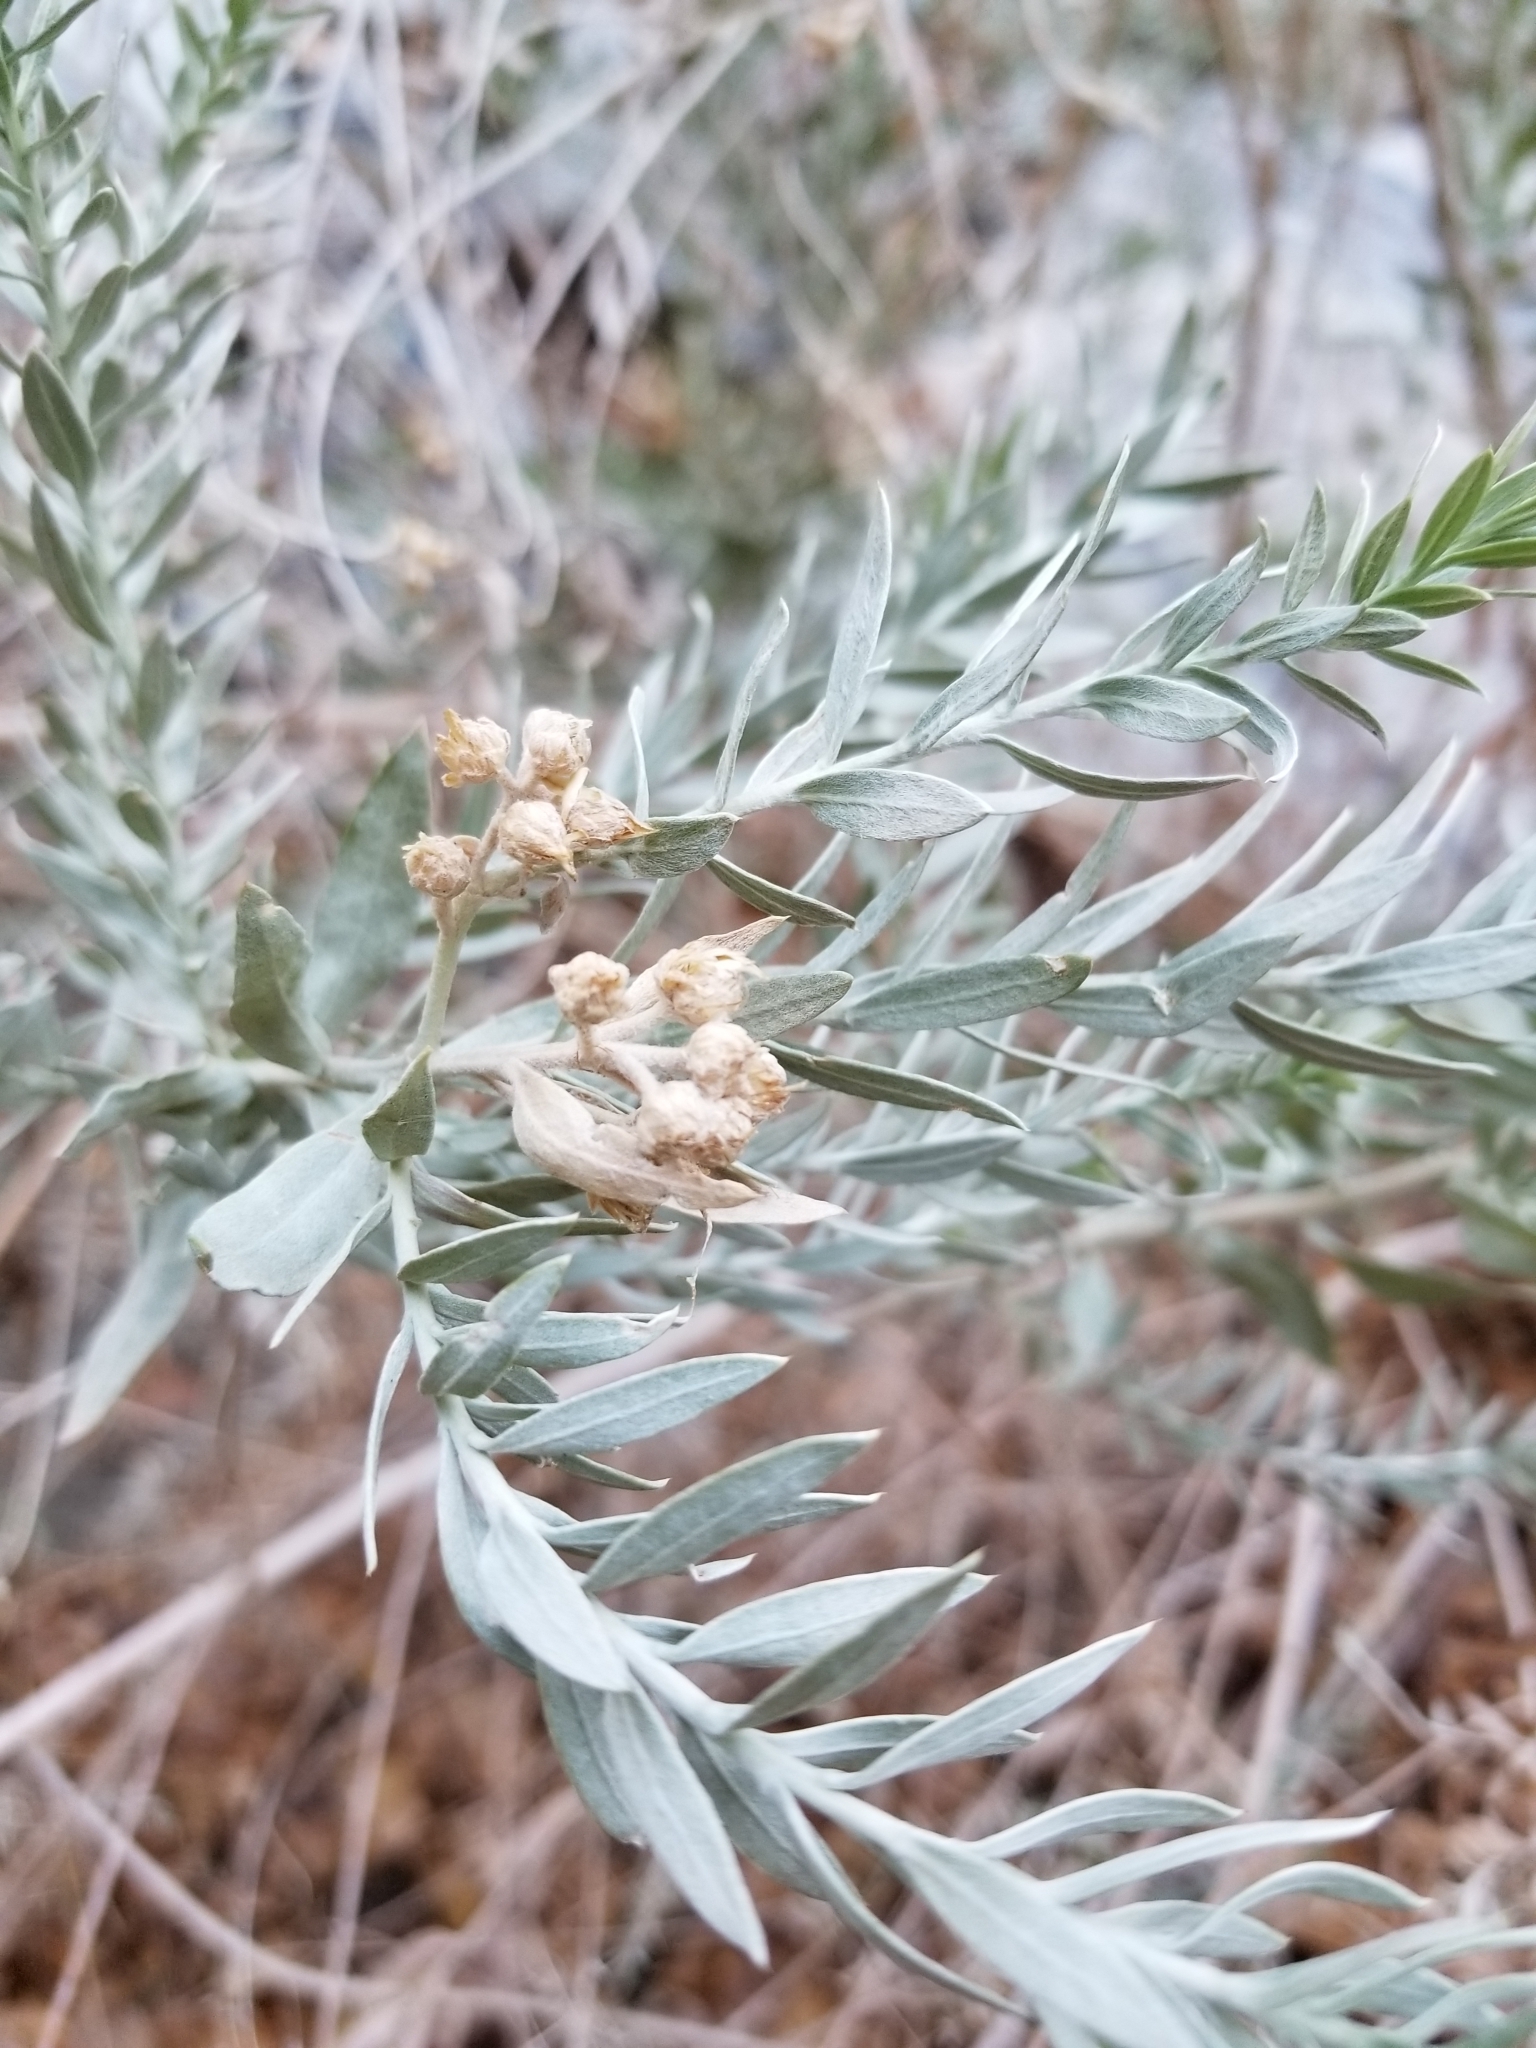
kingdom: Plantae
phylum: Tracheophyta
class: Magnoliopsida
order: Asterales
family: Asteraceae
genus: Pluchea
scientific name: Pluchea sericea
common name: Arrow-weed
